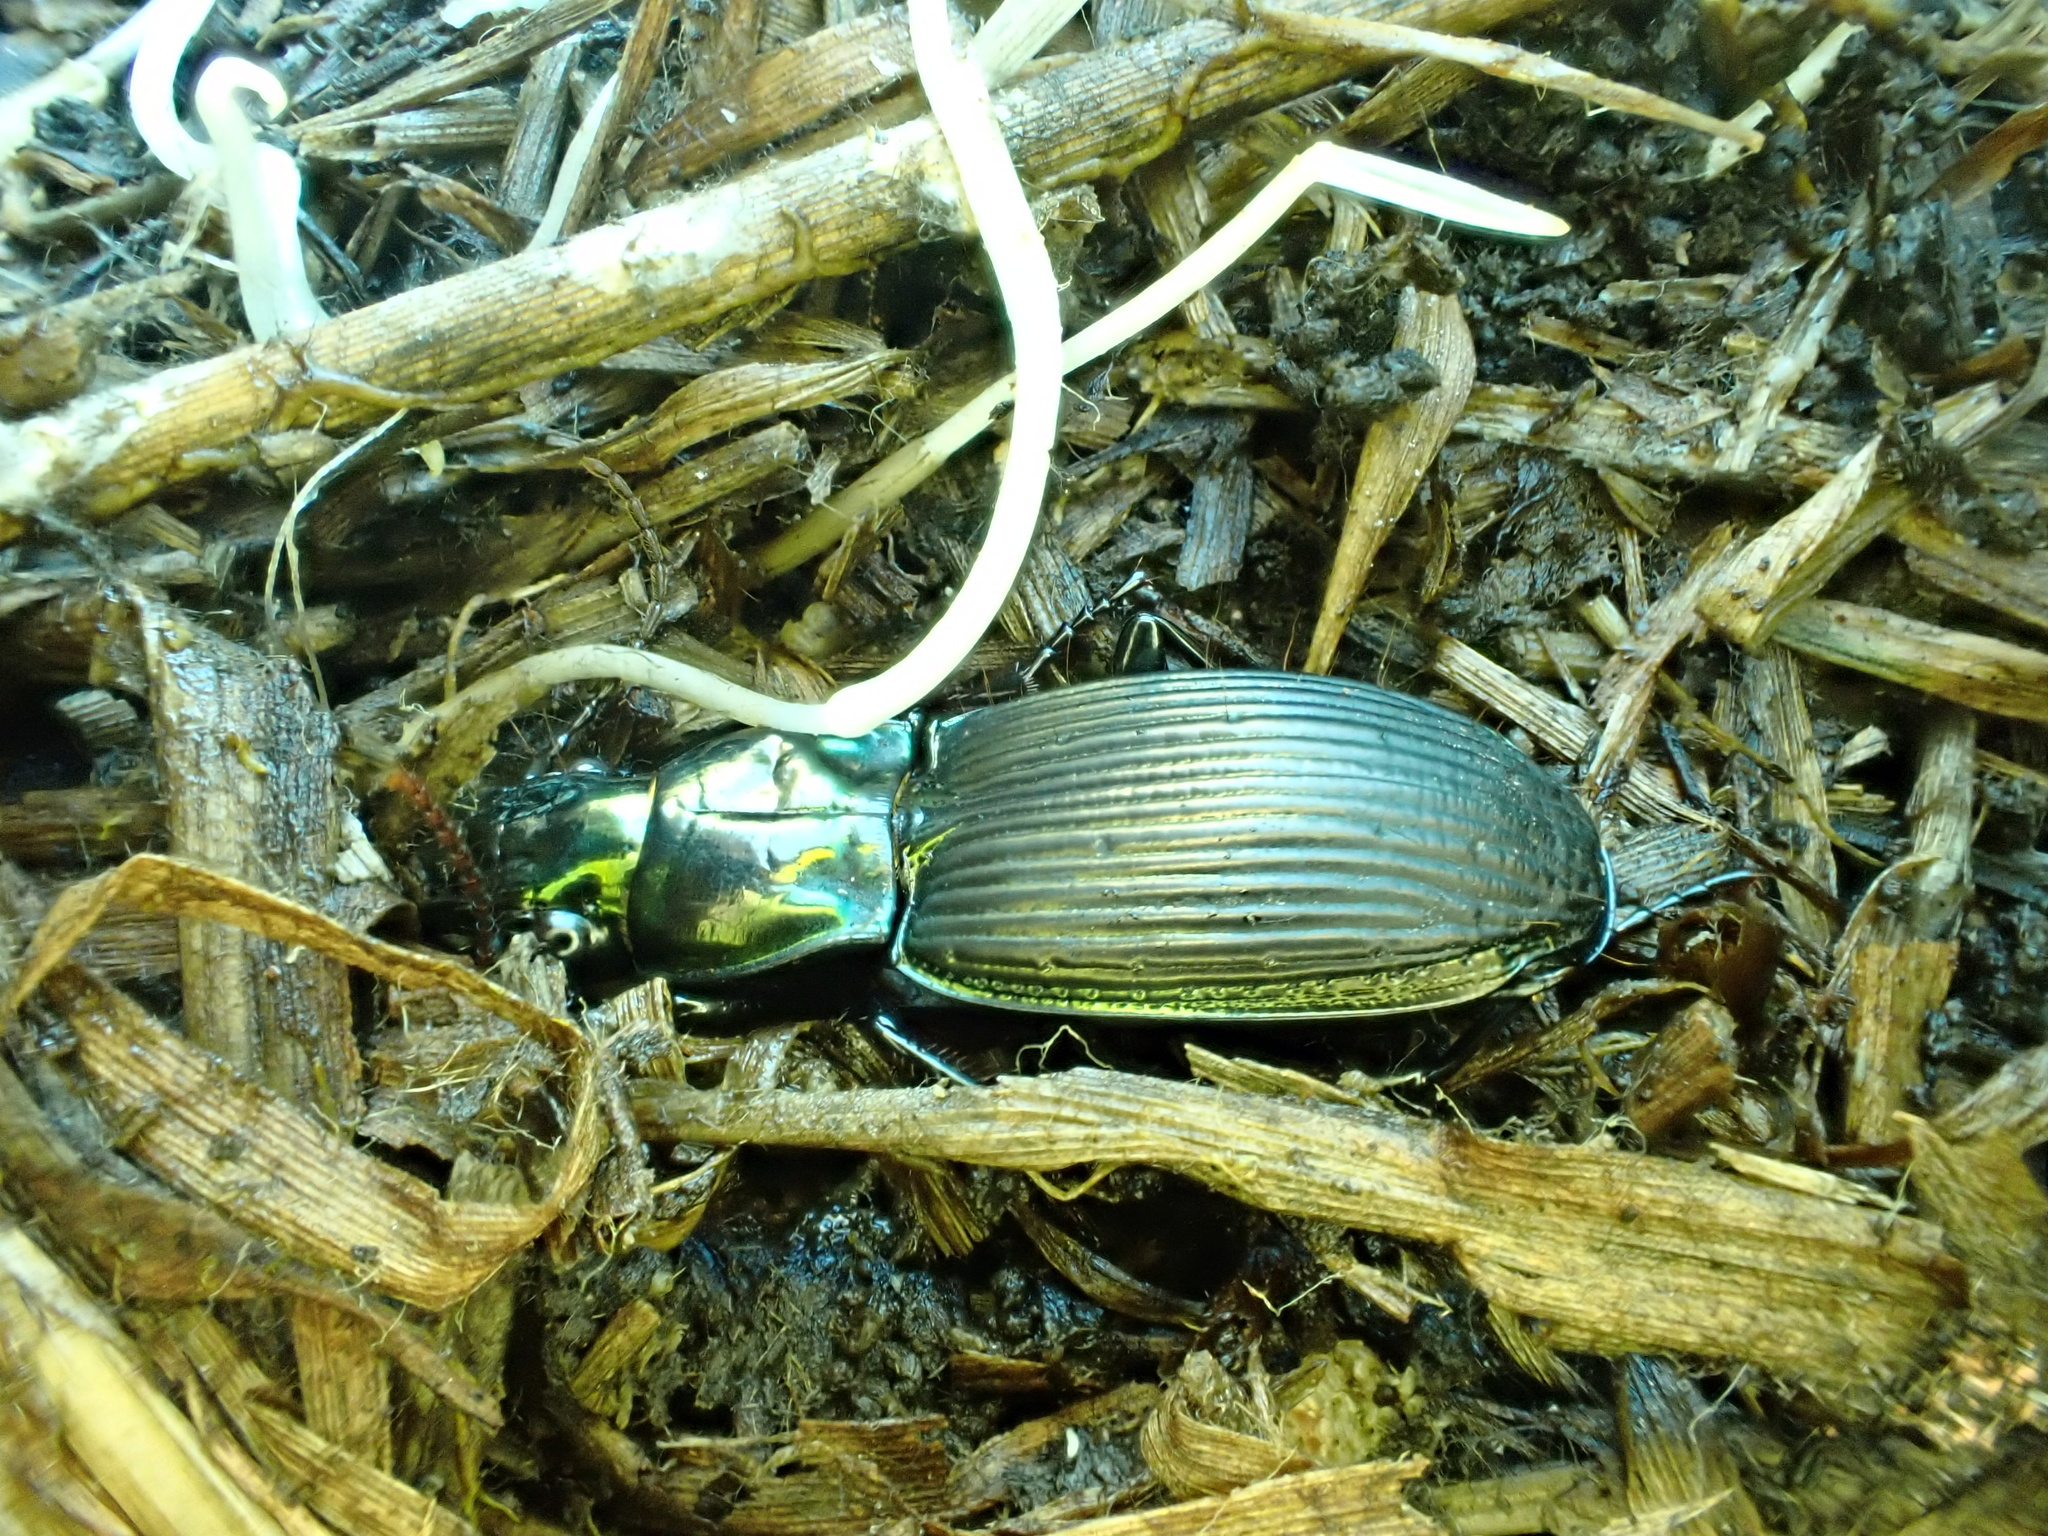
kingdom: Animalia
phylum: Arthropoda
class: Insecta
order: Coleoptera
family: Carabidae
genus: Megadromus
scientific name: Megadromus capito
